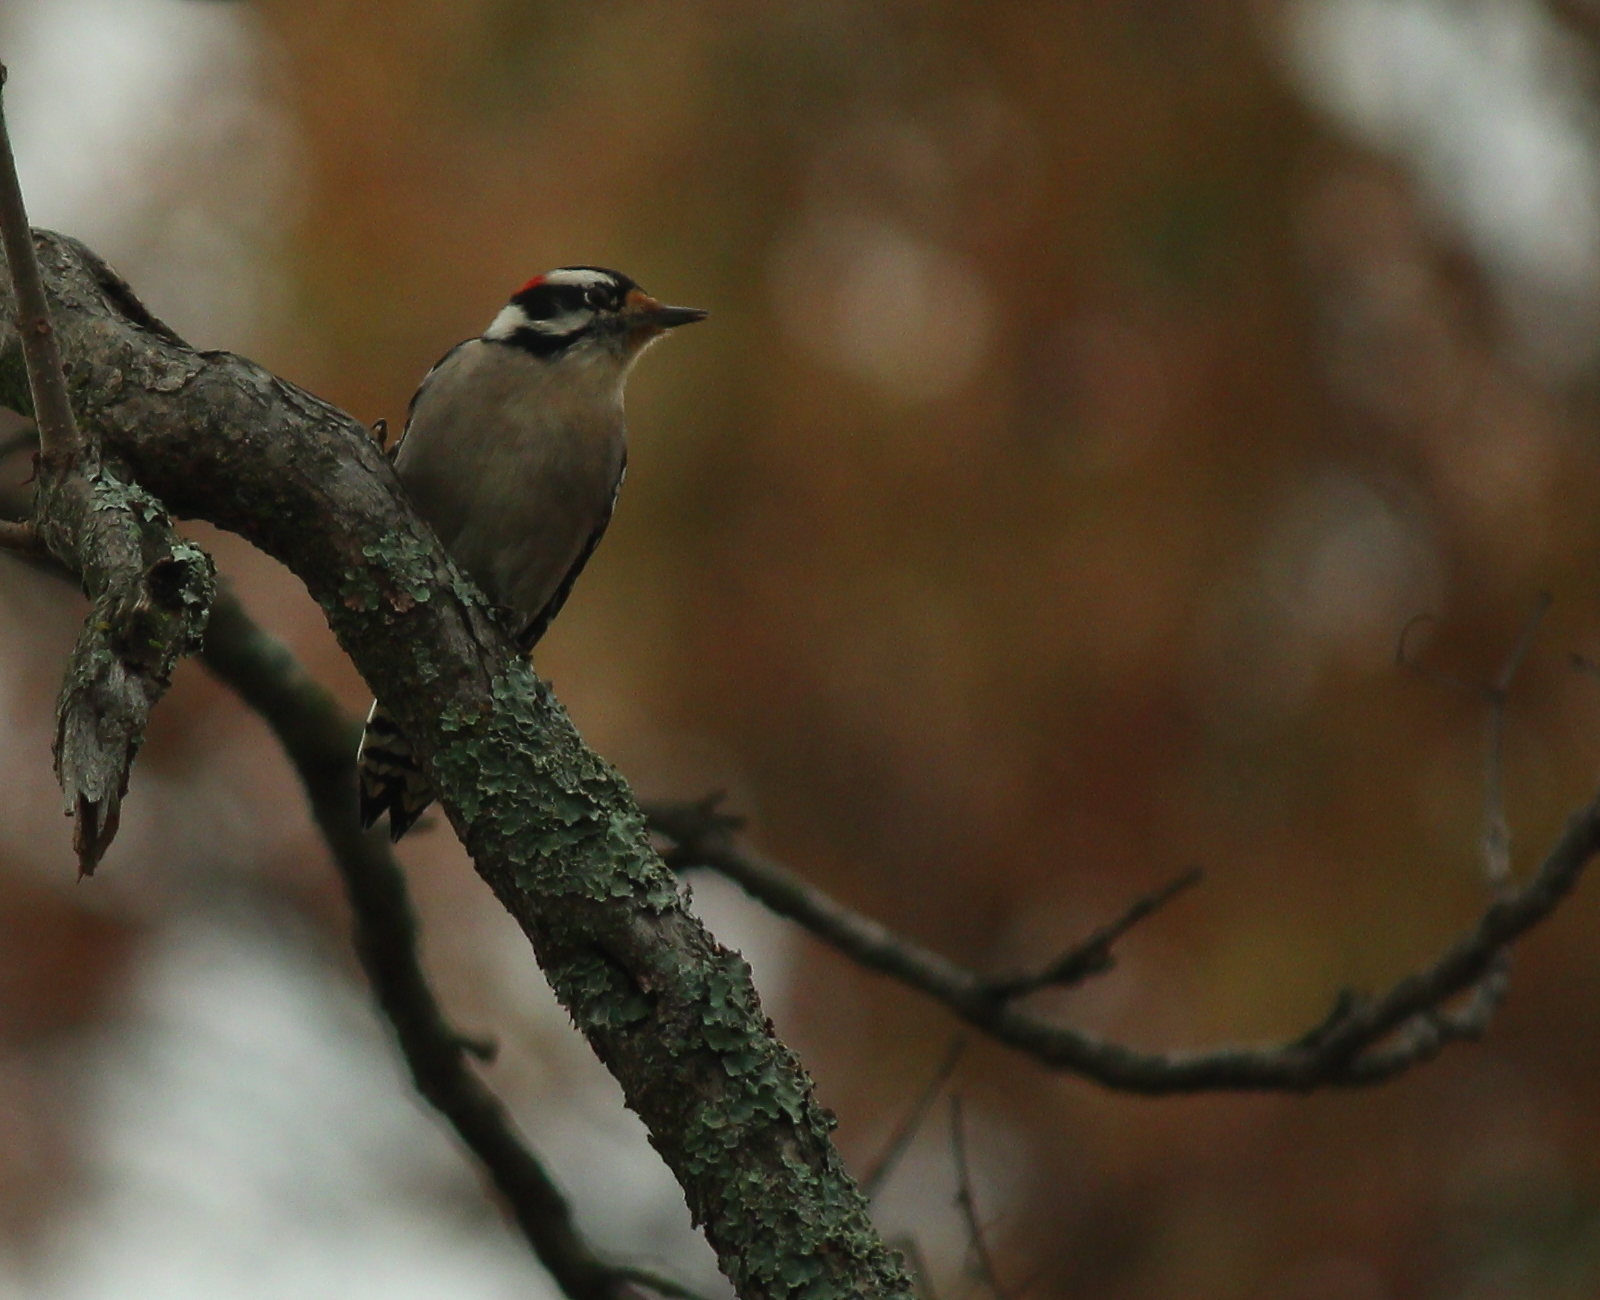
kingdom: Animalia
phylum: Chordata
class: Aves
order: Piciformes
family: Picidae
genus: Dryobates
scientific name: Dryobates pubescens
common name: Downy woodpecker
